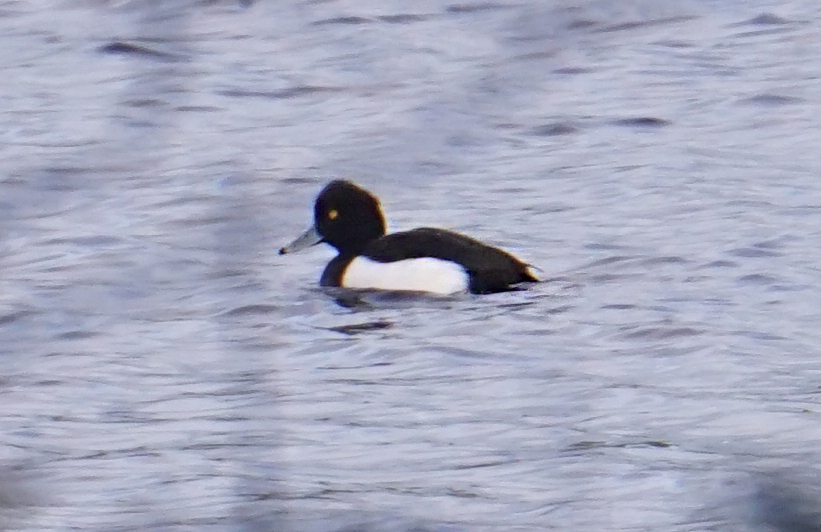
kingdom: Animalia
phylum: Chordata
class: Aves
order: Anseriformes
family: Anatidae
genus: Aythya
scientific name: Aythya fuligula
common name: Tufted duck
